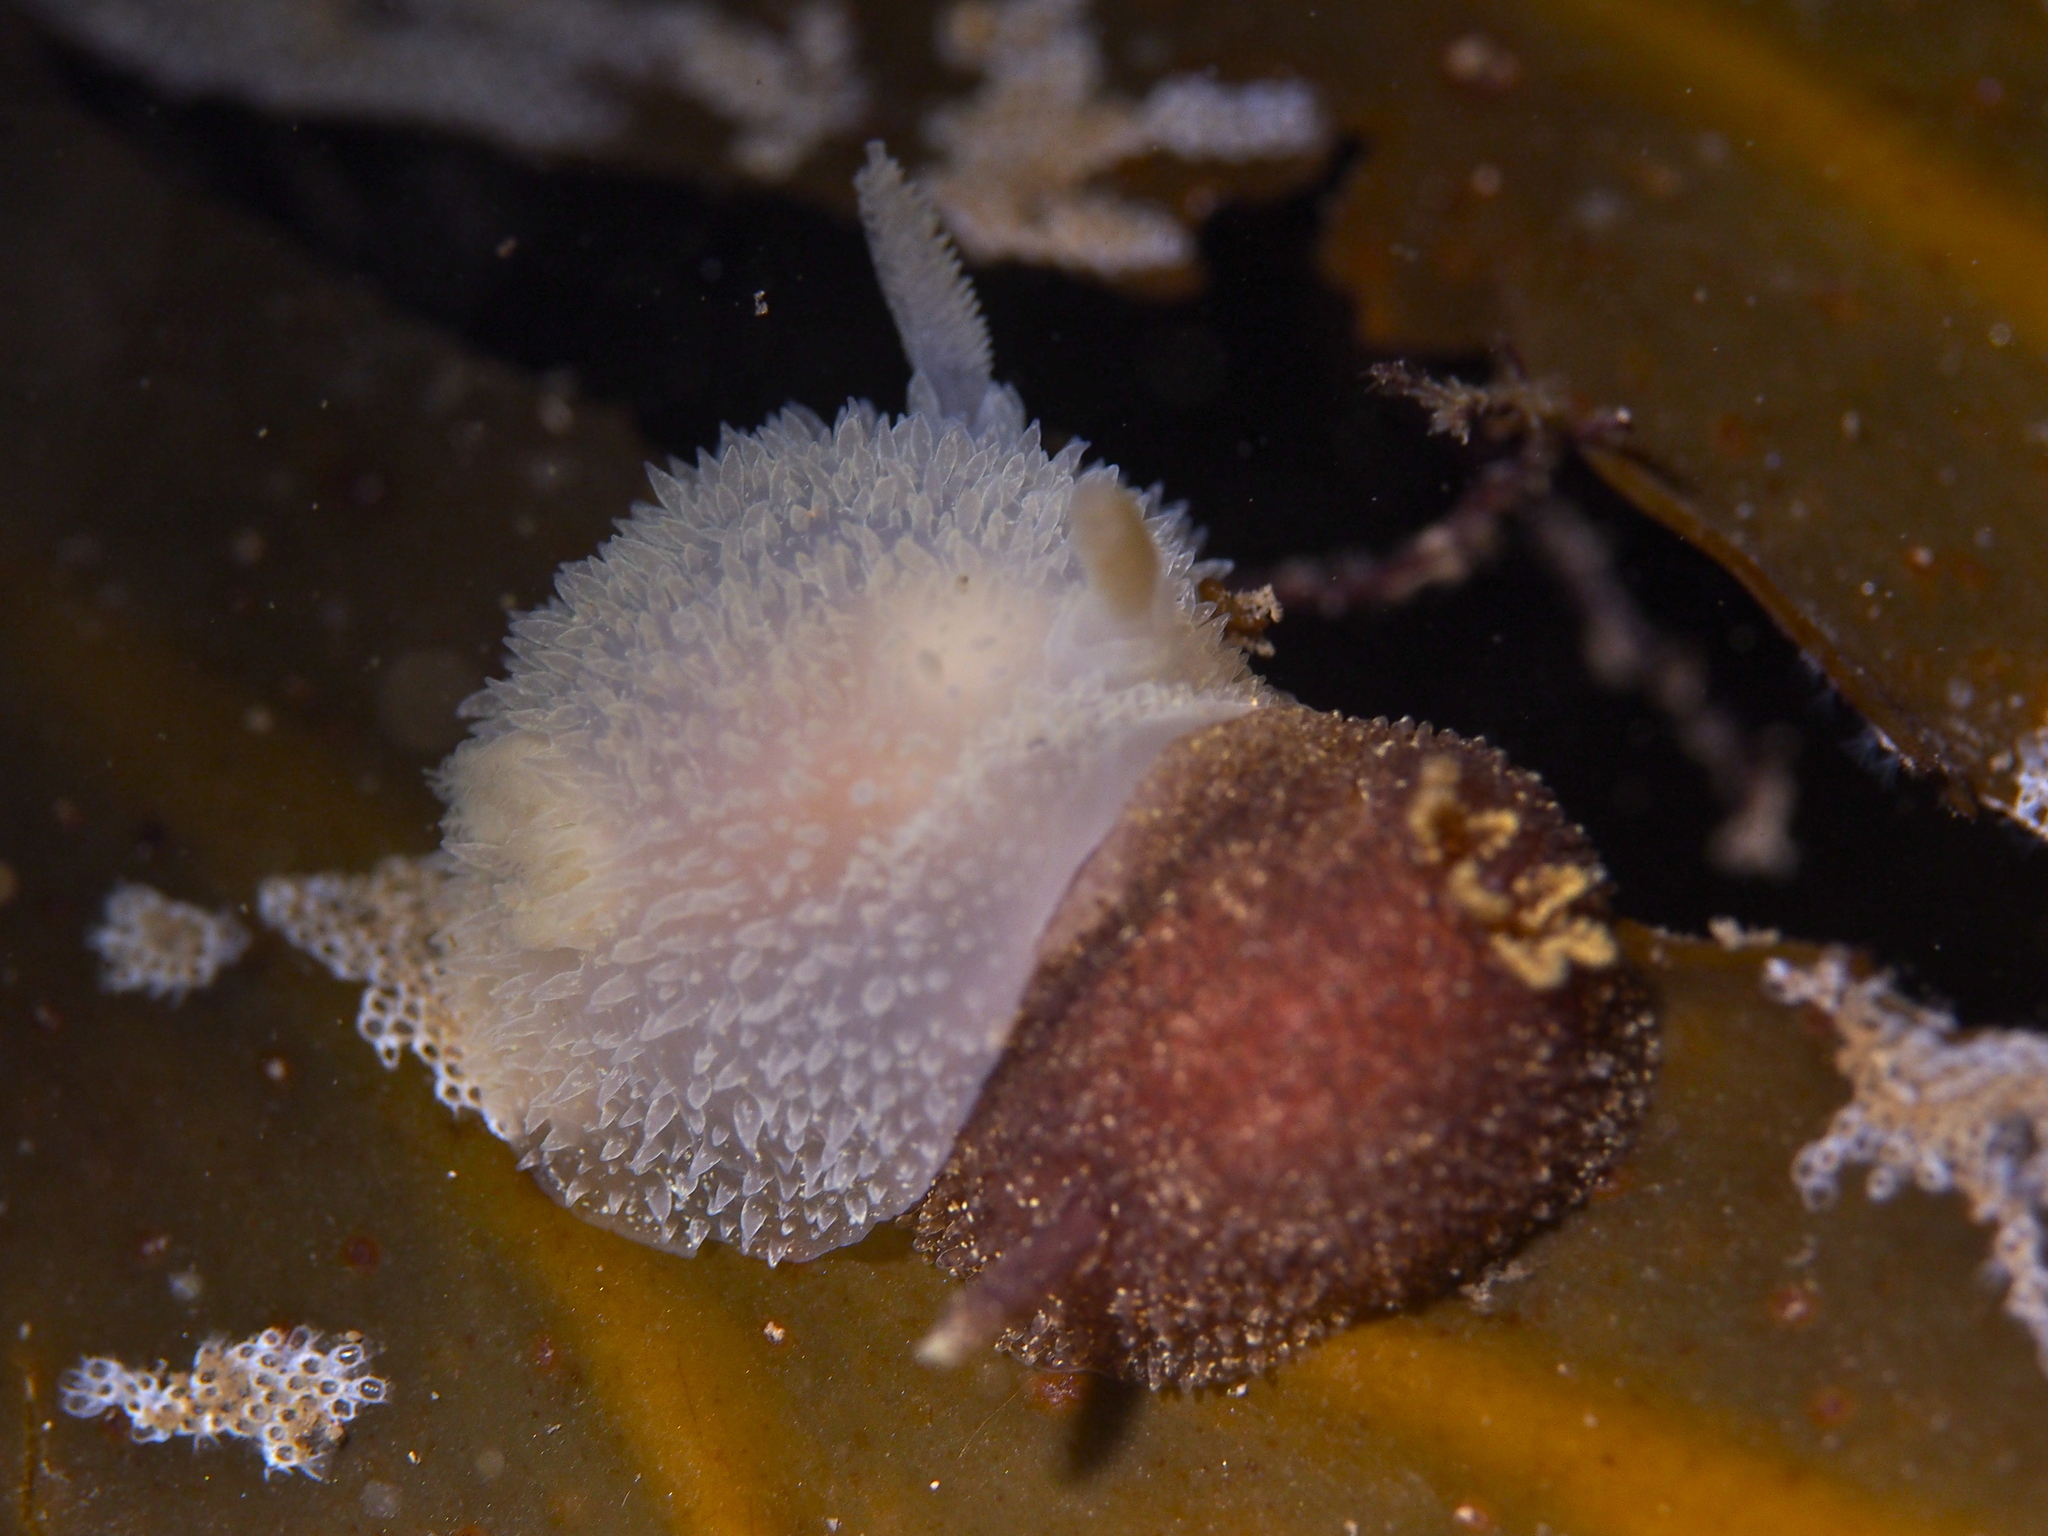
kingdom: Animalia
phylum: Mollusca
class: Gastropoda
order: Nudibranchia
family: Onchidorididae
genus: Acanthodoris
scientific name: Acanthodoris pilosa
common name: Hairy spiny doris
